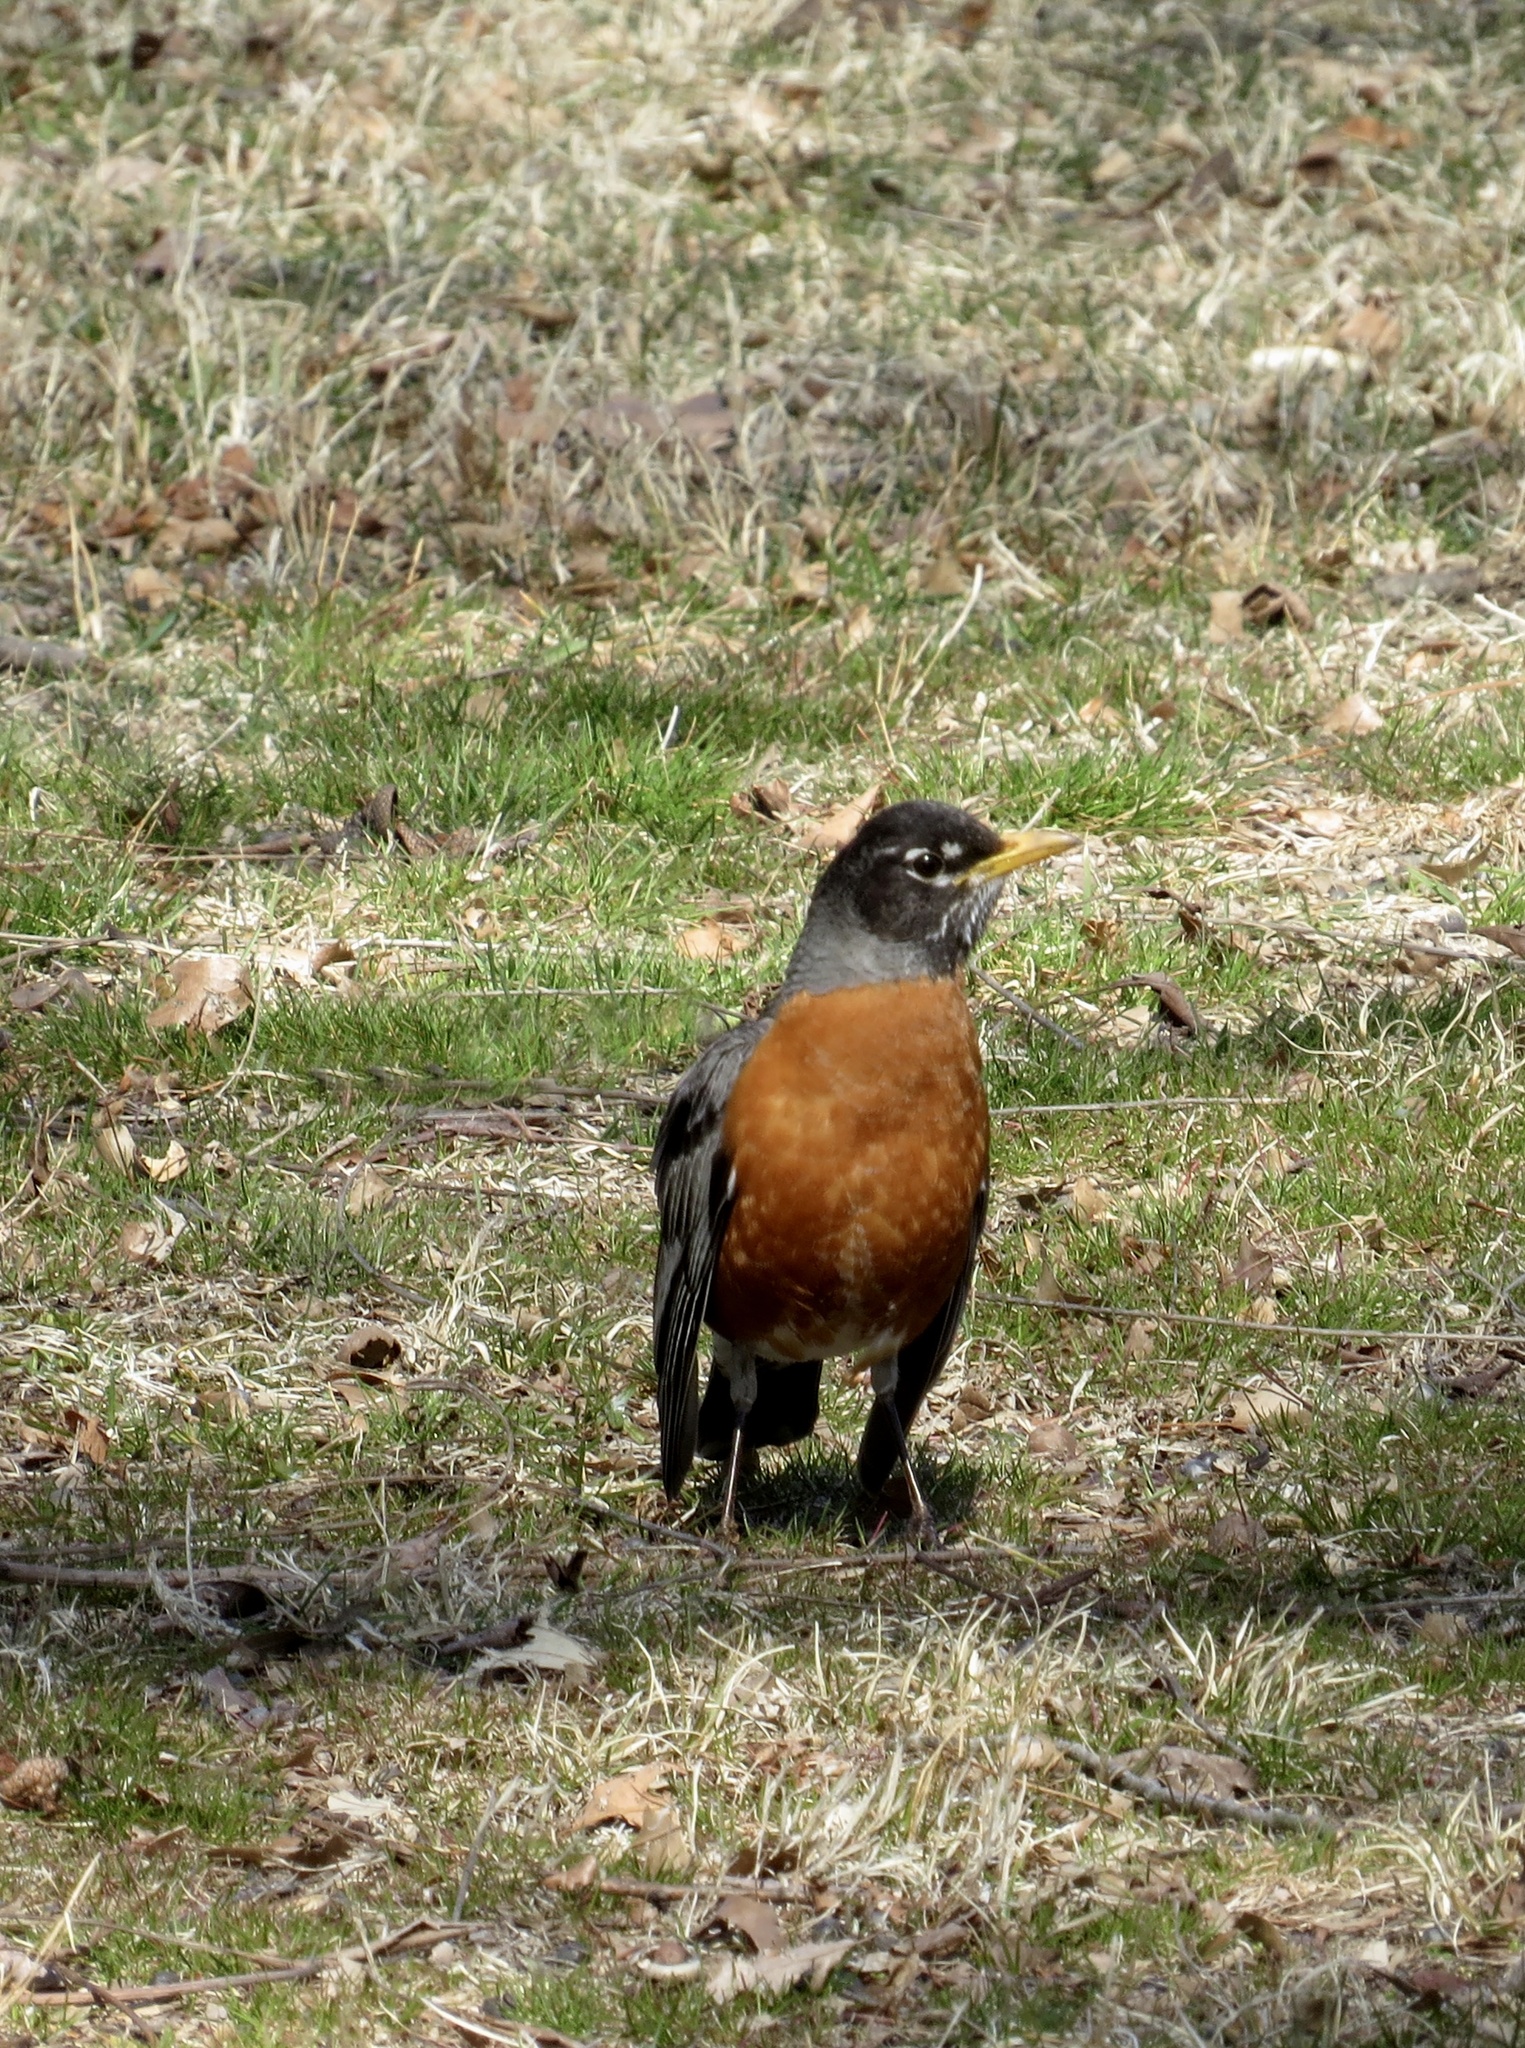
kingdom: Animalia
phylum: Chordata
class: Aves
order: Passeriformes
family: Turdidae
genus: Turdus
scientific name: Turdus migratorius
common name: American robin
